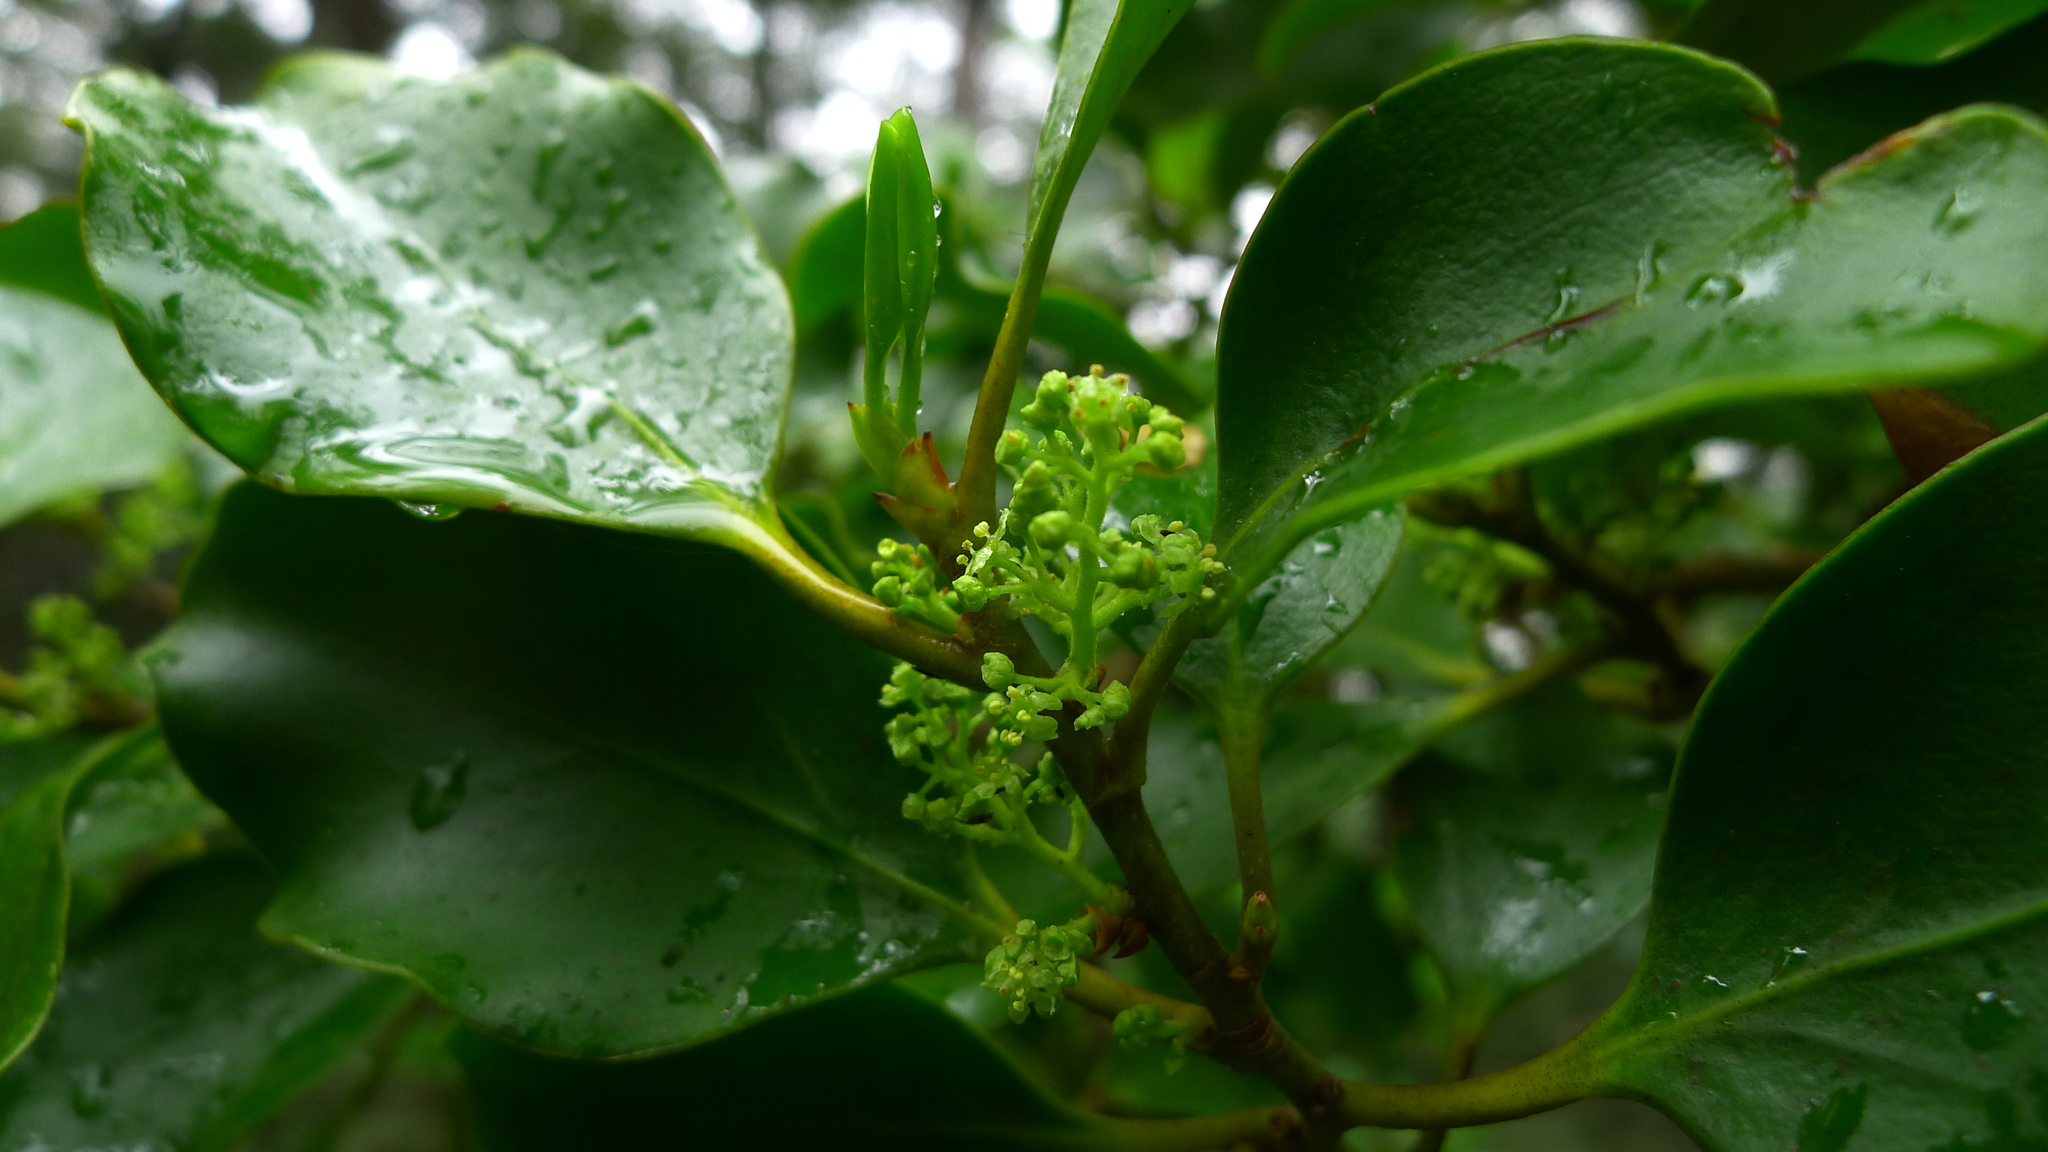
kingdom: Plantae
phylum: Tracheophyta
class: Magnoliopsida
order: Apiales
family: Griseliniaceae
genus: Griselinia
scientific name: Griselinia littoralis
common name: New zealand broadleaf
